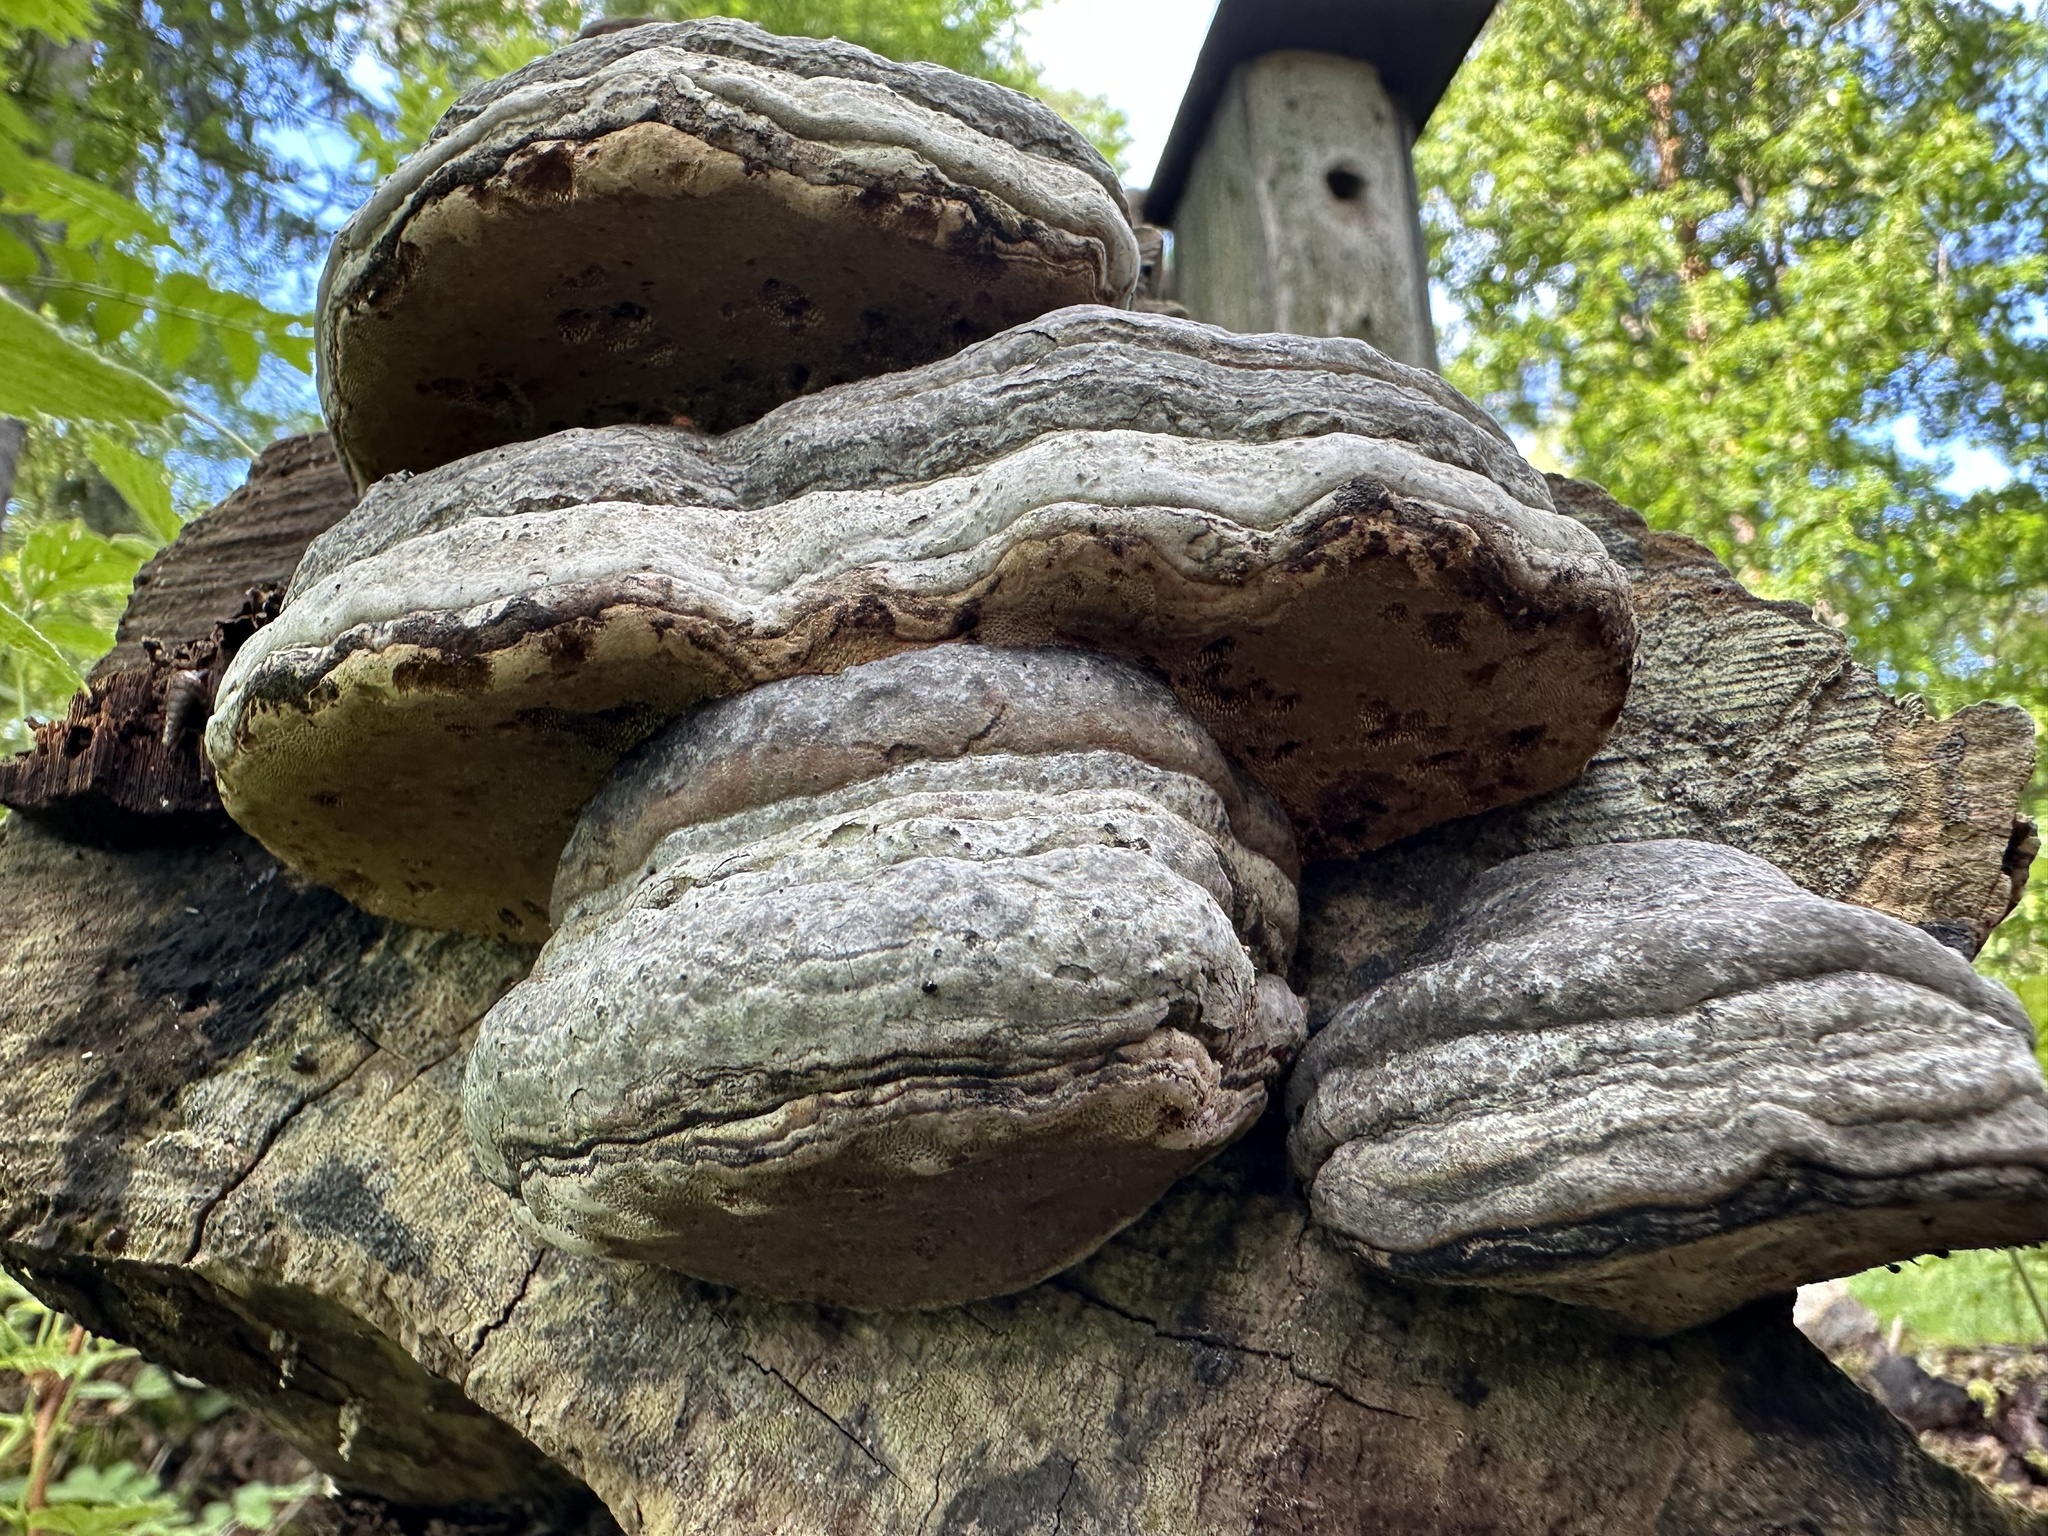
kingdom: Fungi
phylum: Basidiomycota
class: Agaricomycetes
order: Polyporales
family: Polyporaceae
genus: Fomes
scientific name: Fomes fomentarius
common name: Hoof fungus
